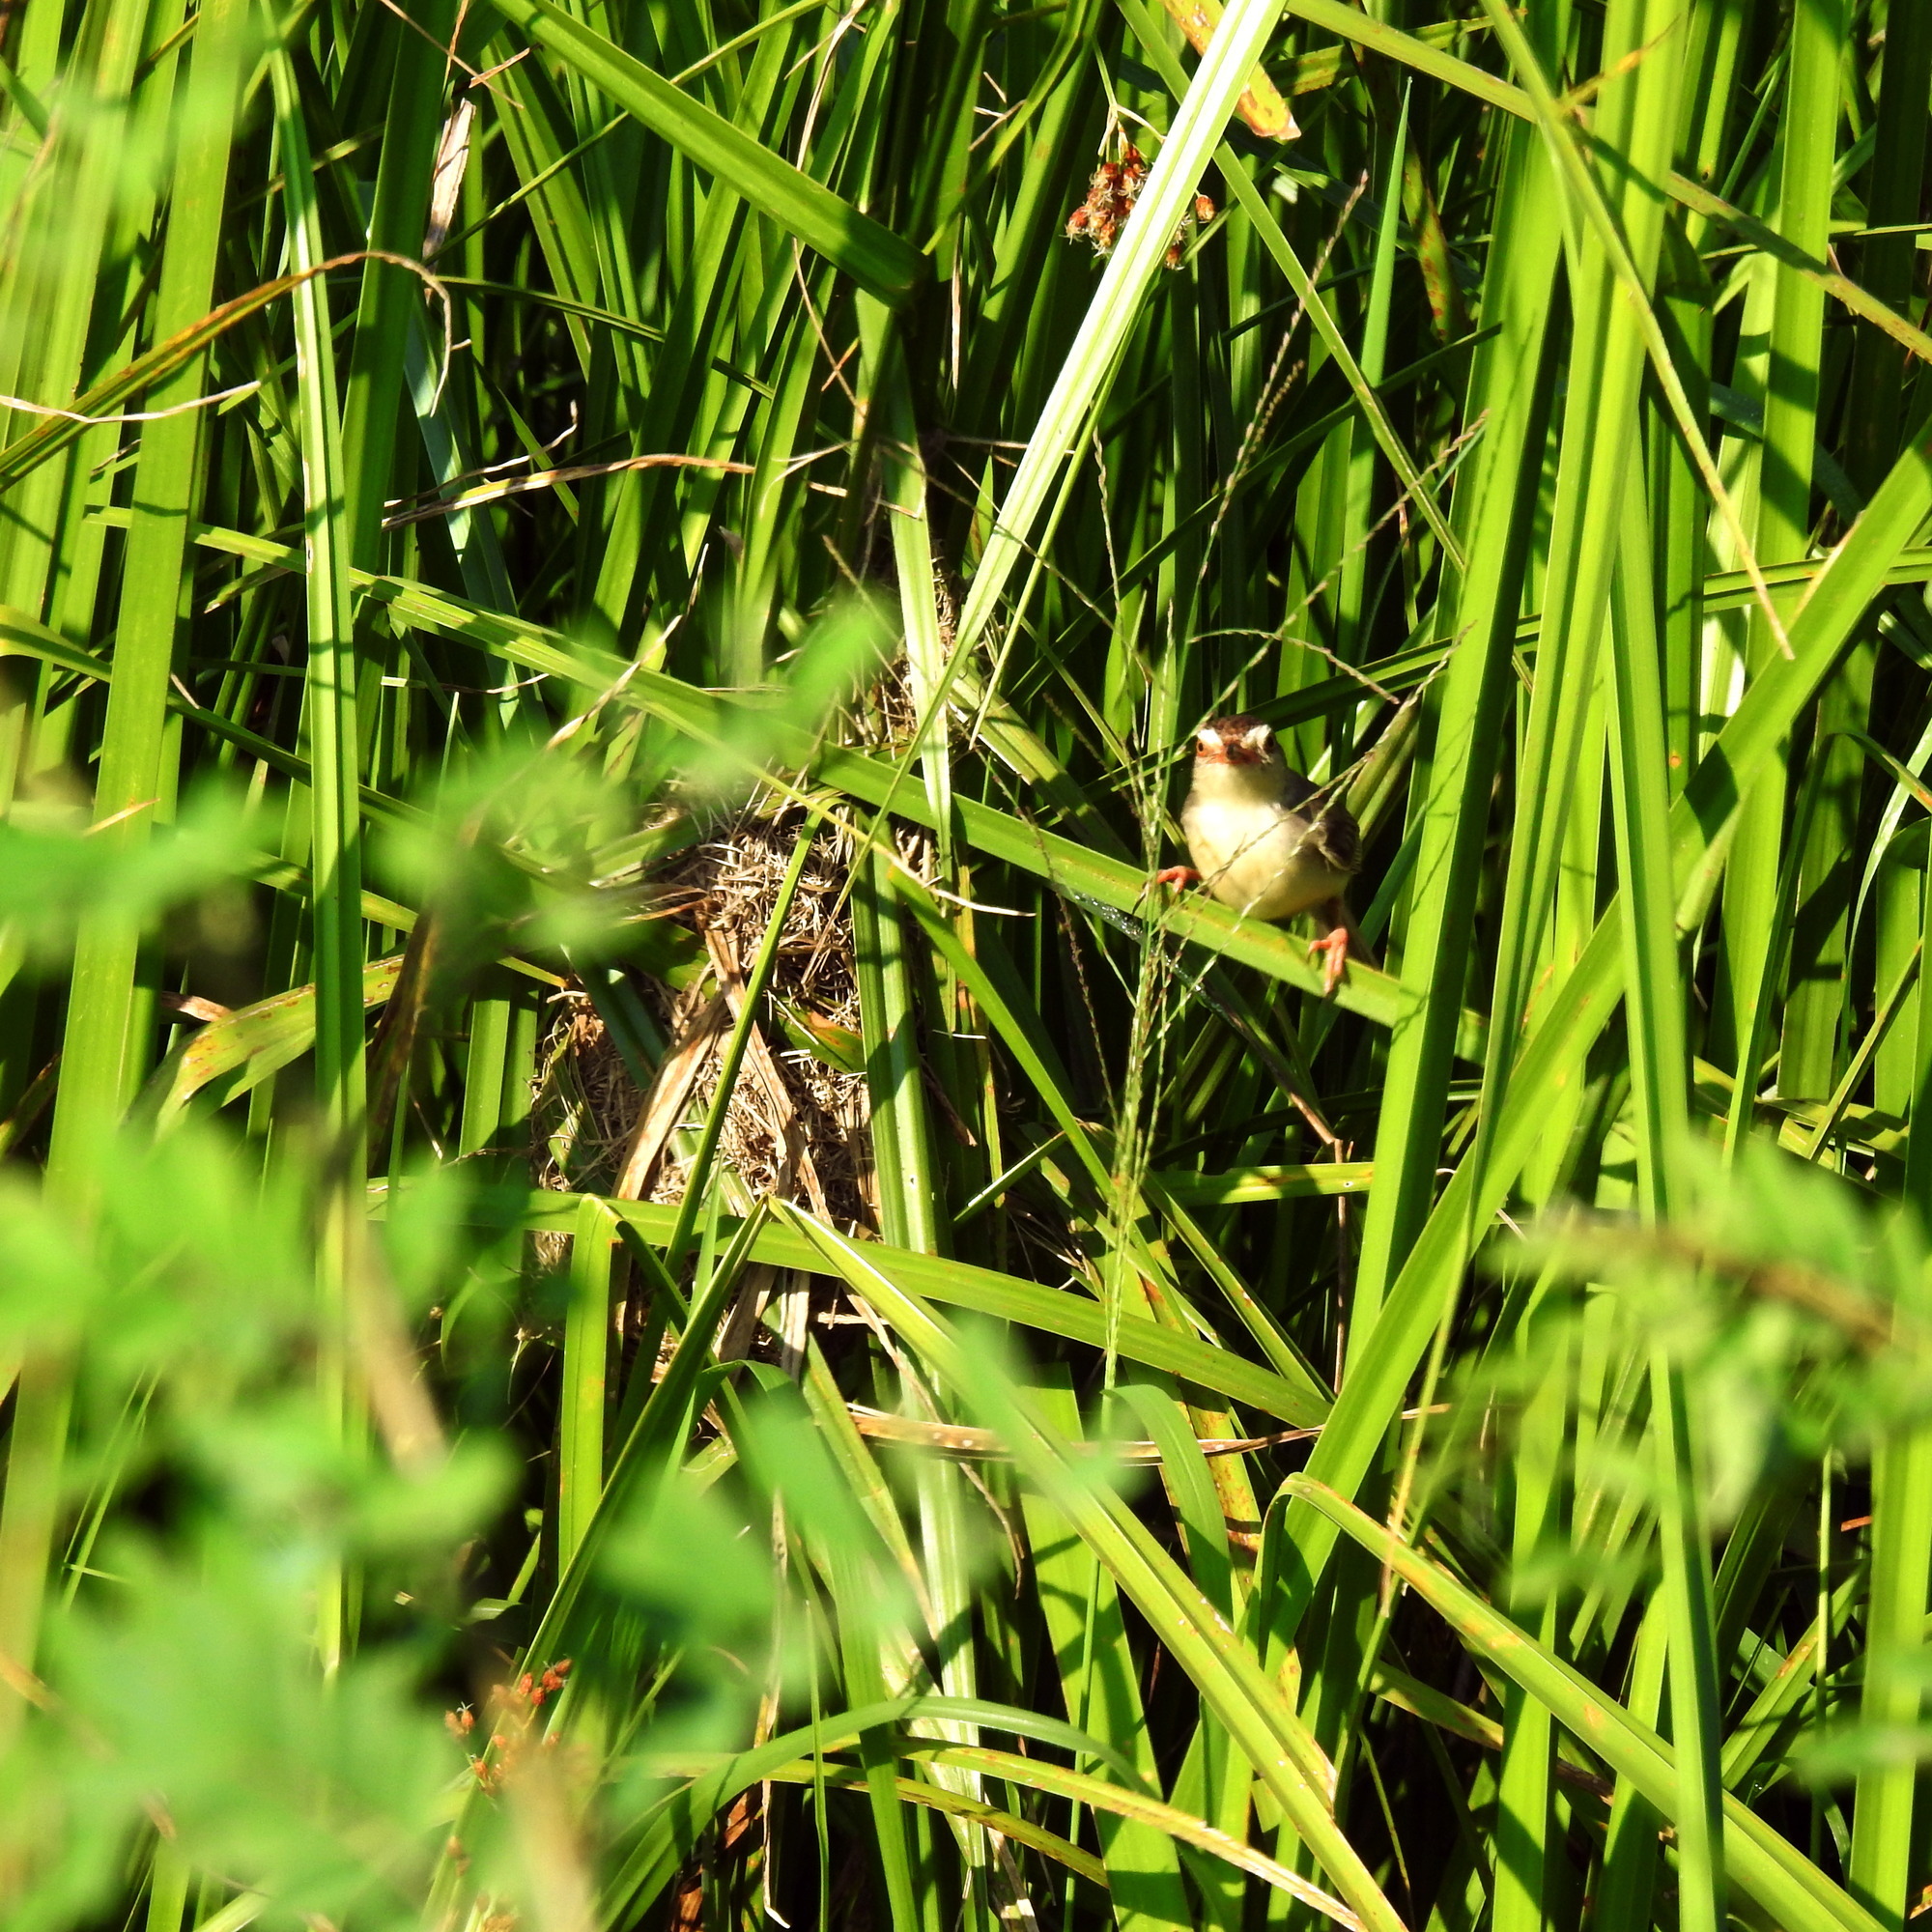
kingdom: Animalia
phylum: Chordata
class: Aves
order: Passeriformes
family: Cisticolidae
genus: Prinia
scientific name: Prinia inornata
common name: Plain prinia
